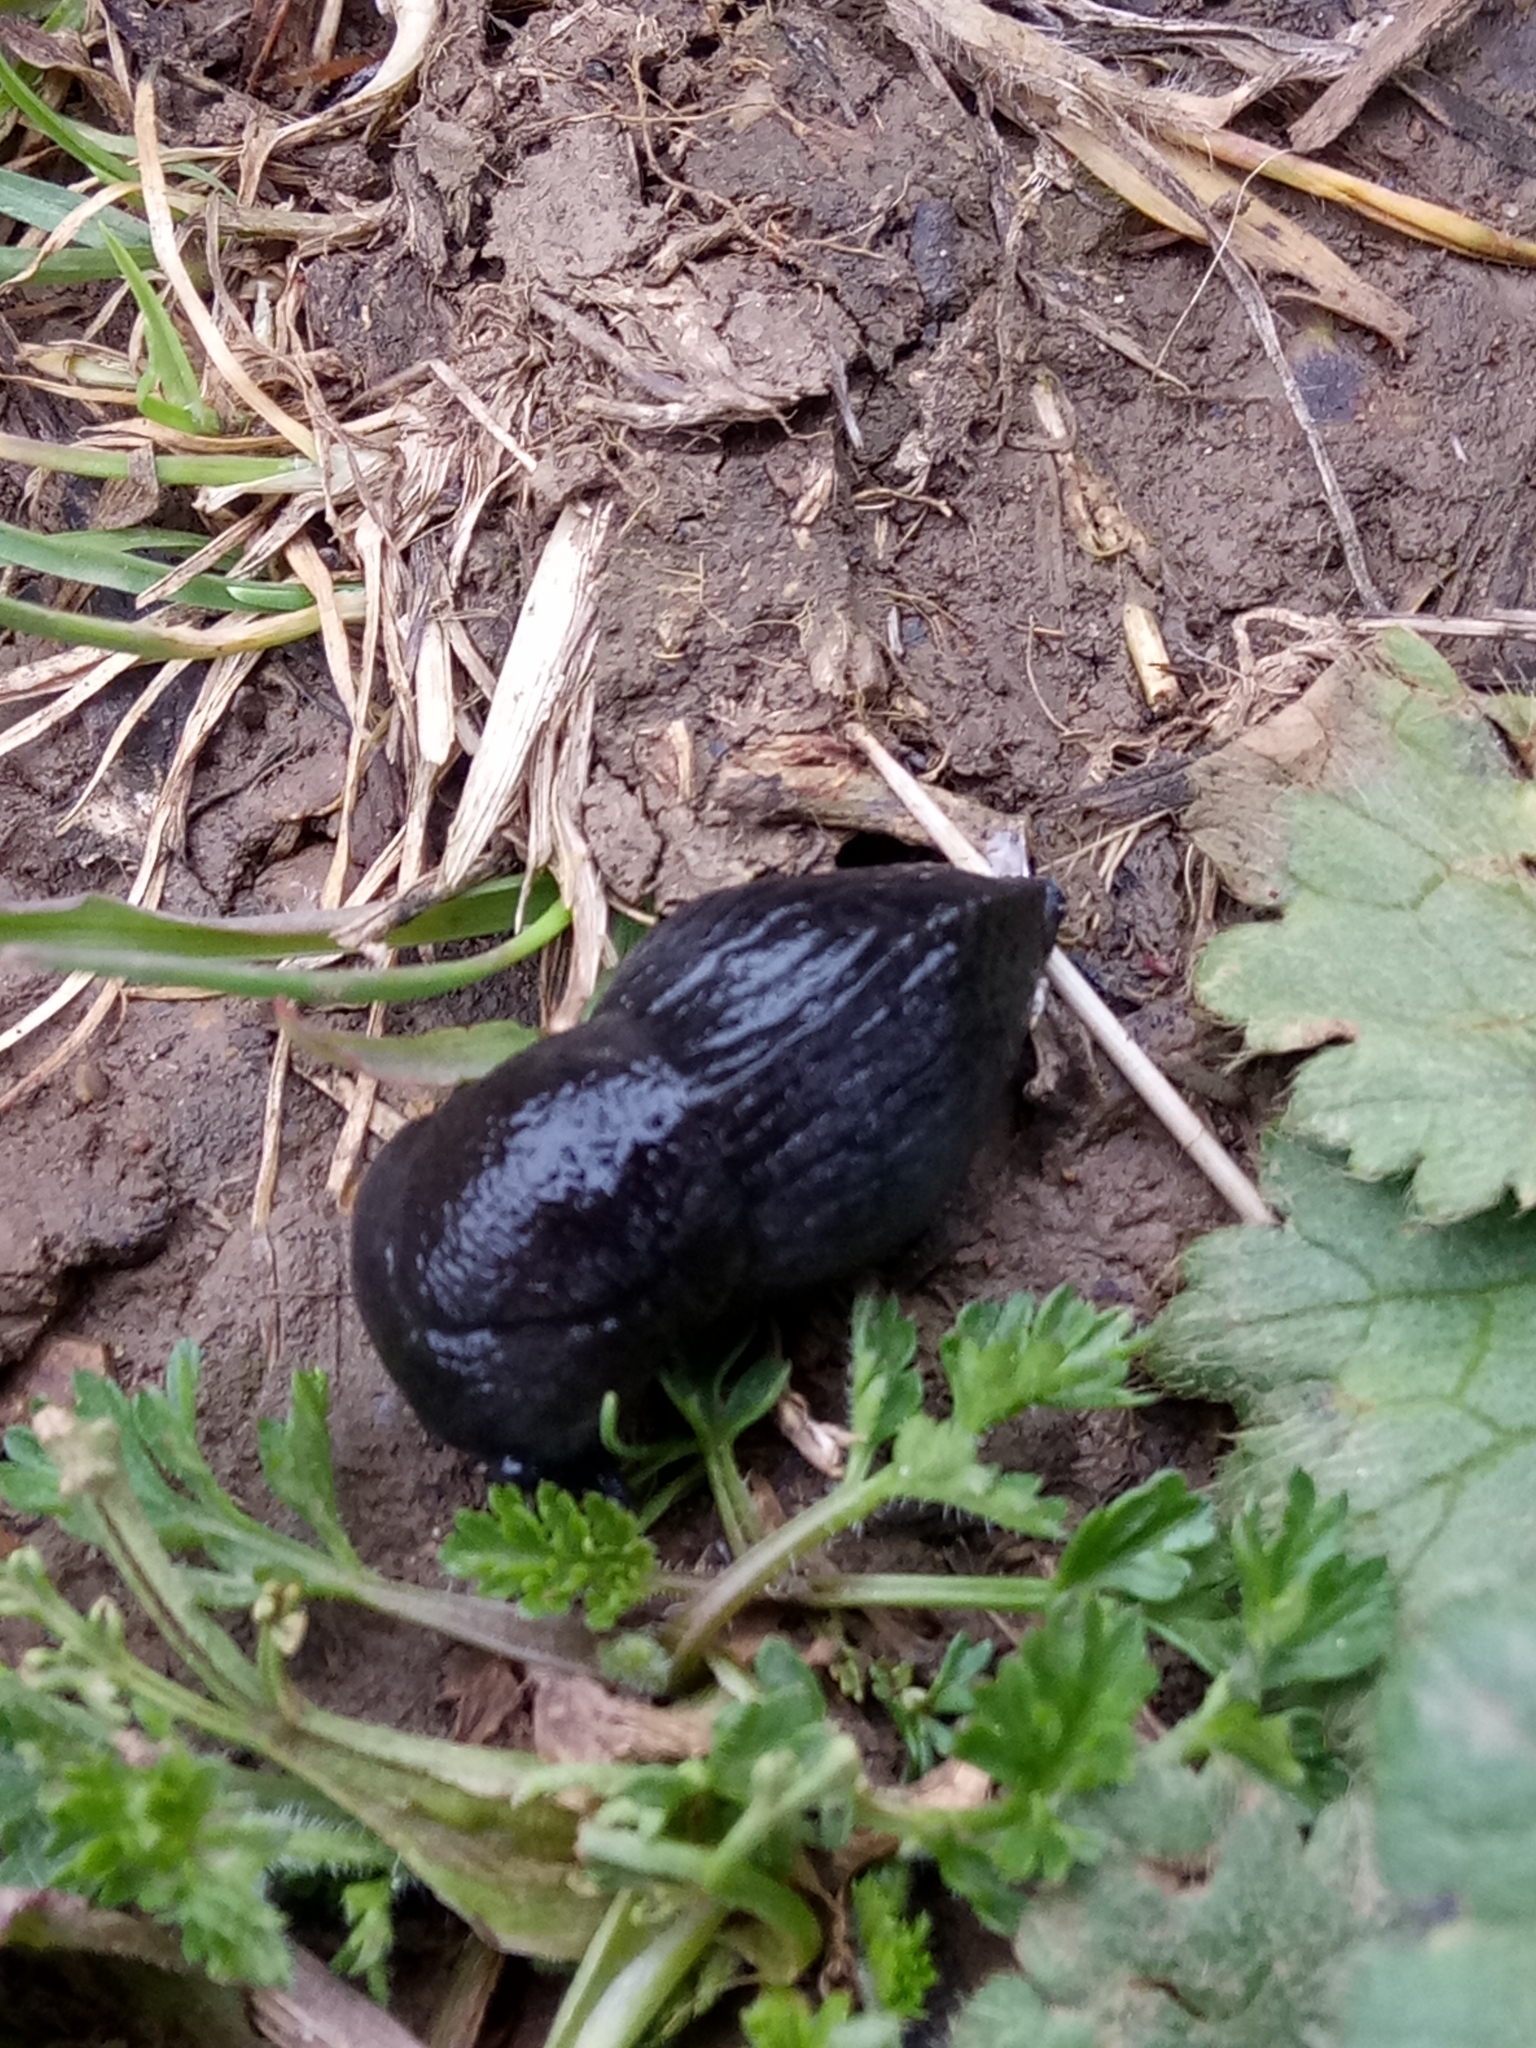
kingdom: Animalia
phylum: Mollusca
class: Gastropoda
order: Stylommatophora
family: Milacidae
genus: Milax
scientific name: Milax gagates
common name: Greenhouse slug
